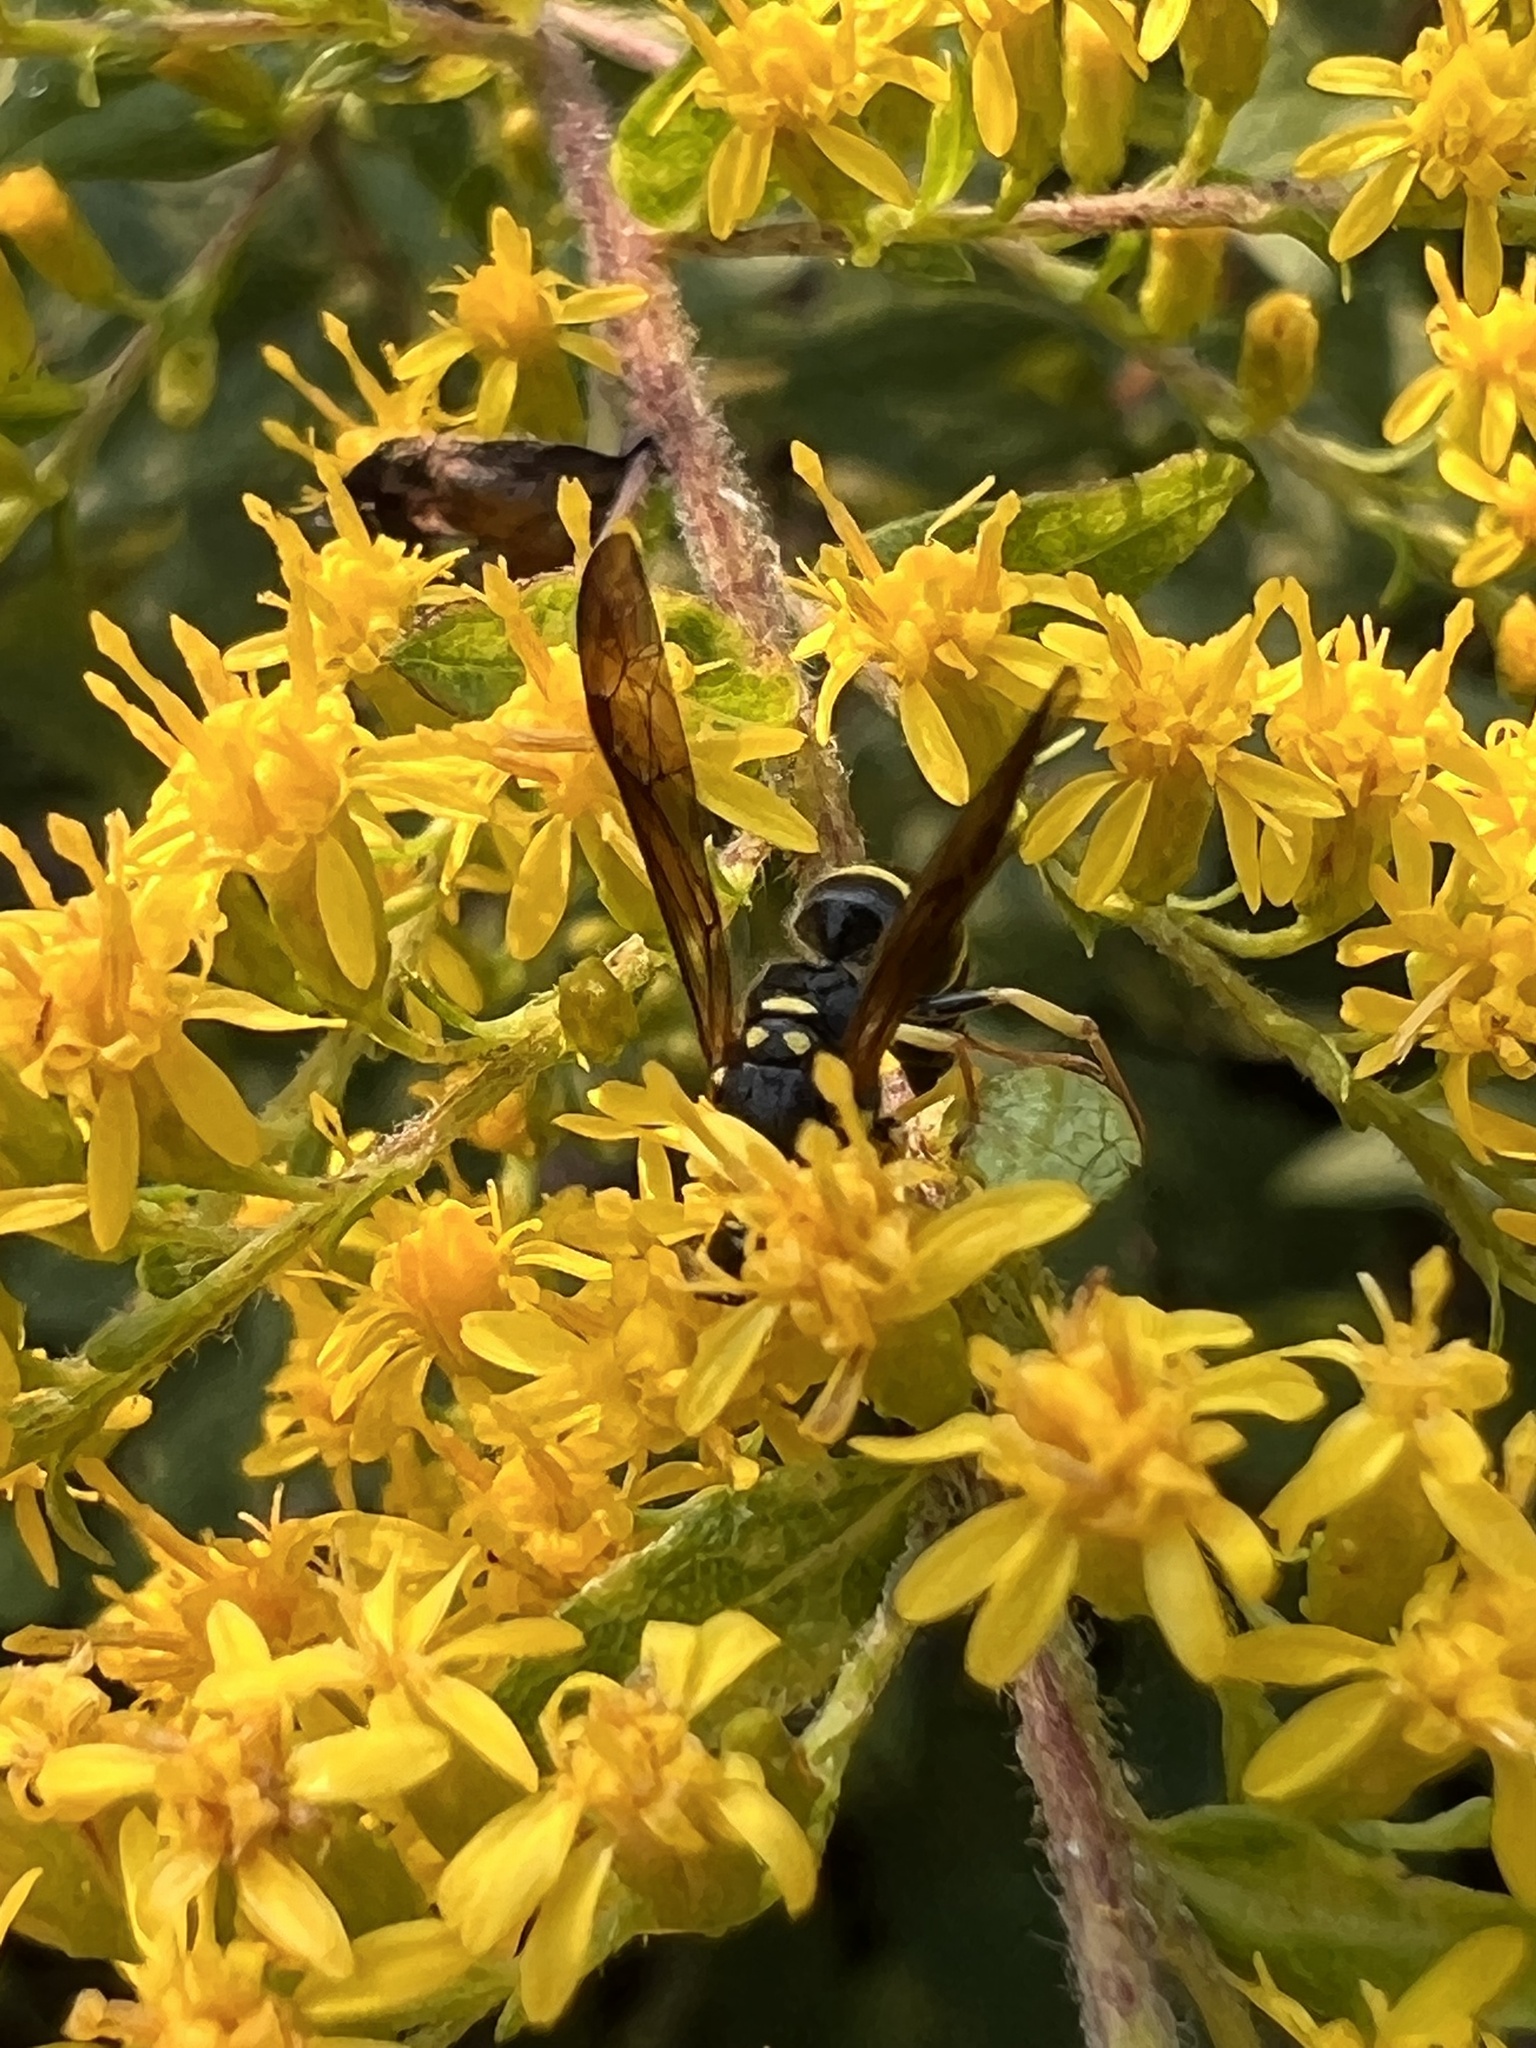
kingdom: Animalia
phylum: Arthropoda
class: Insecta
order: Hymenoptera
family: Vespidae
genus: Ancistrocerus
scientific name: Ancistrocerus adiabatus
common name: Bramble mason wasp
